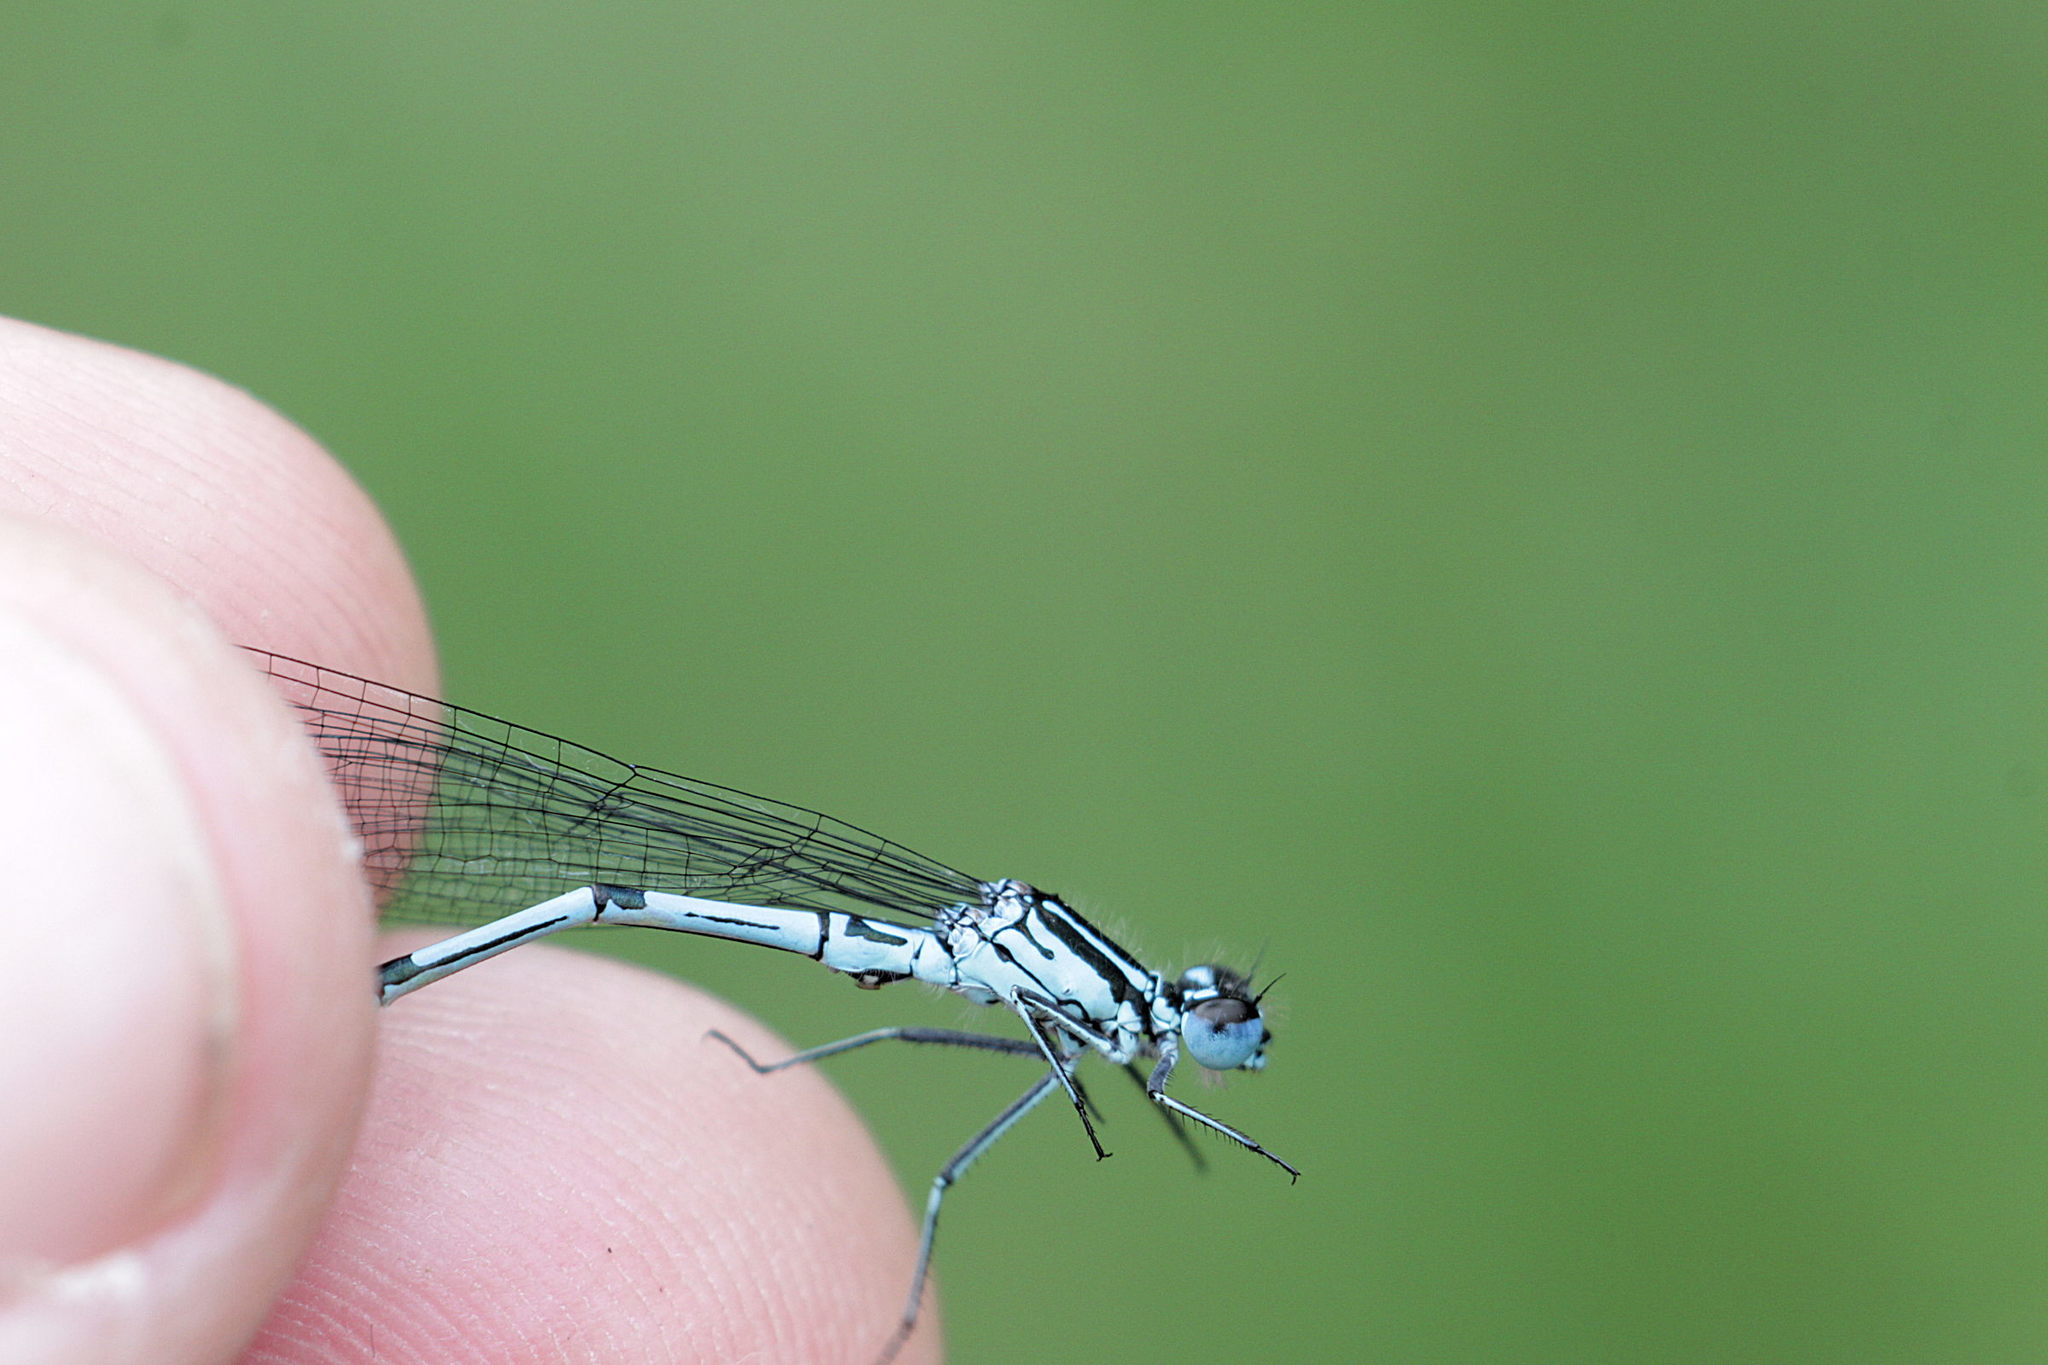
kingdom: Animalia
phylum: Arthropoda
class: Insecta
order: Odonata
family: Coenagrionidae
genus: Coenagrion
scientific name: Coenagrion puella
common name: Azure damselfly
